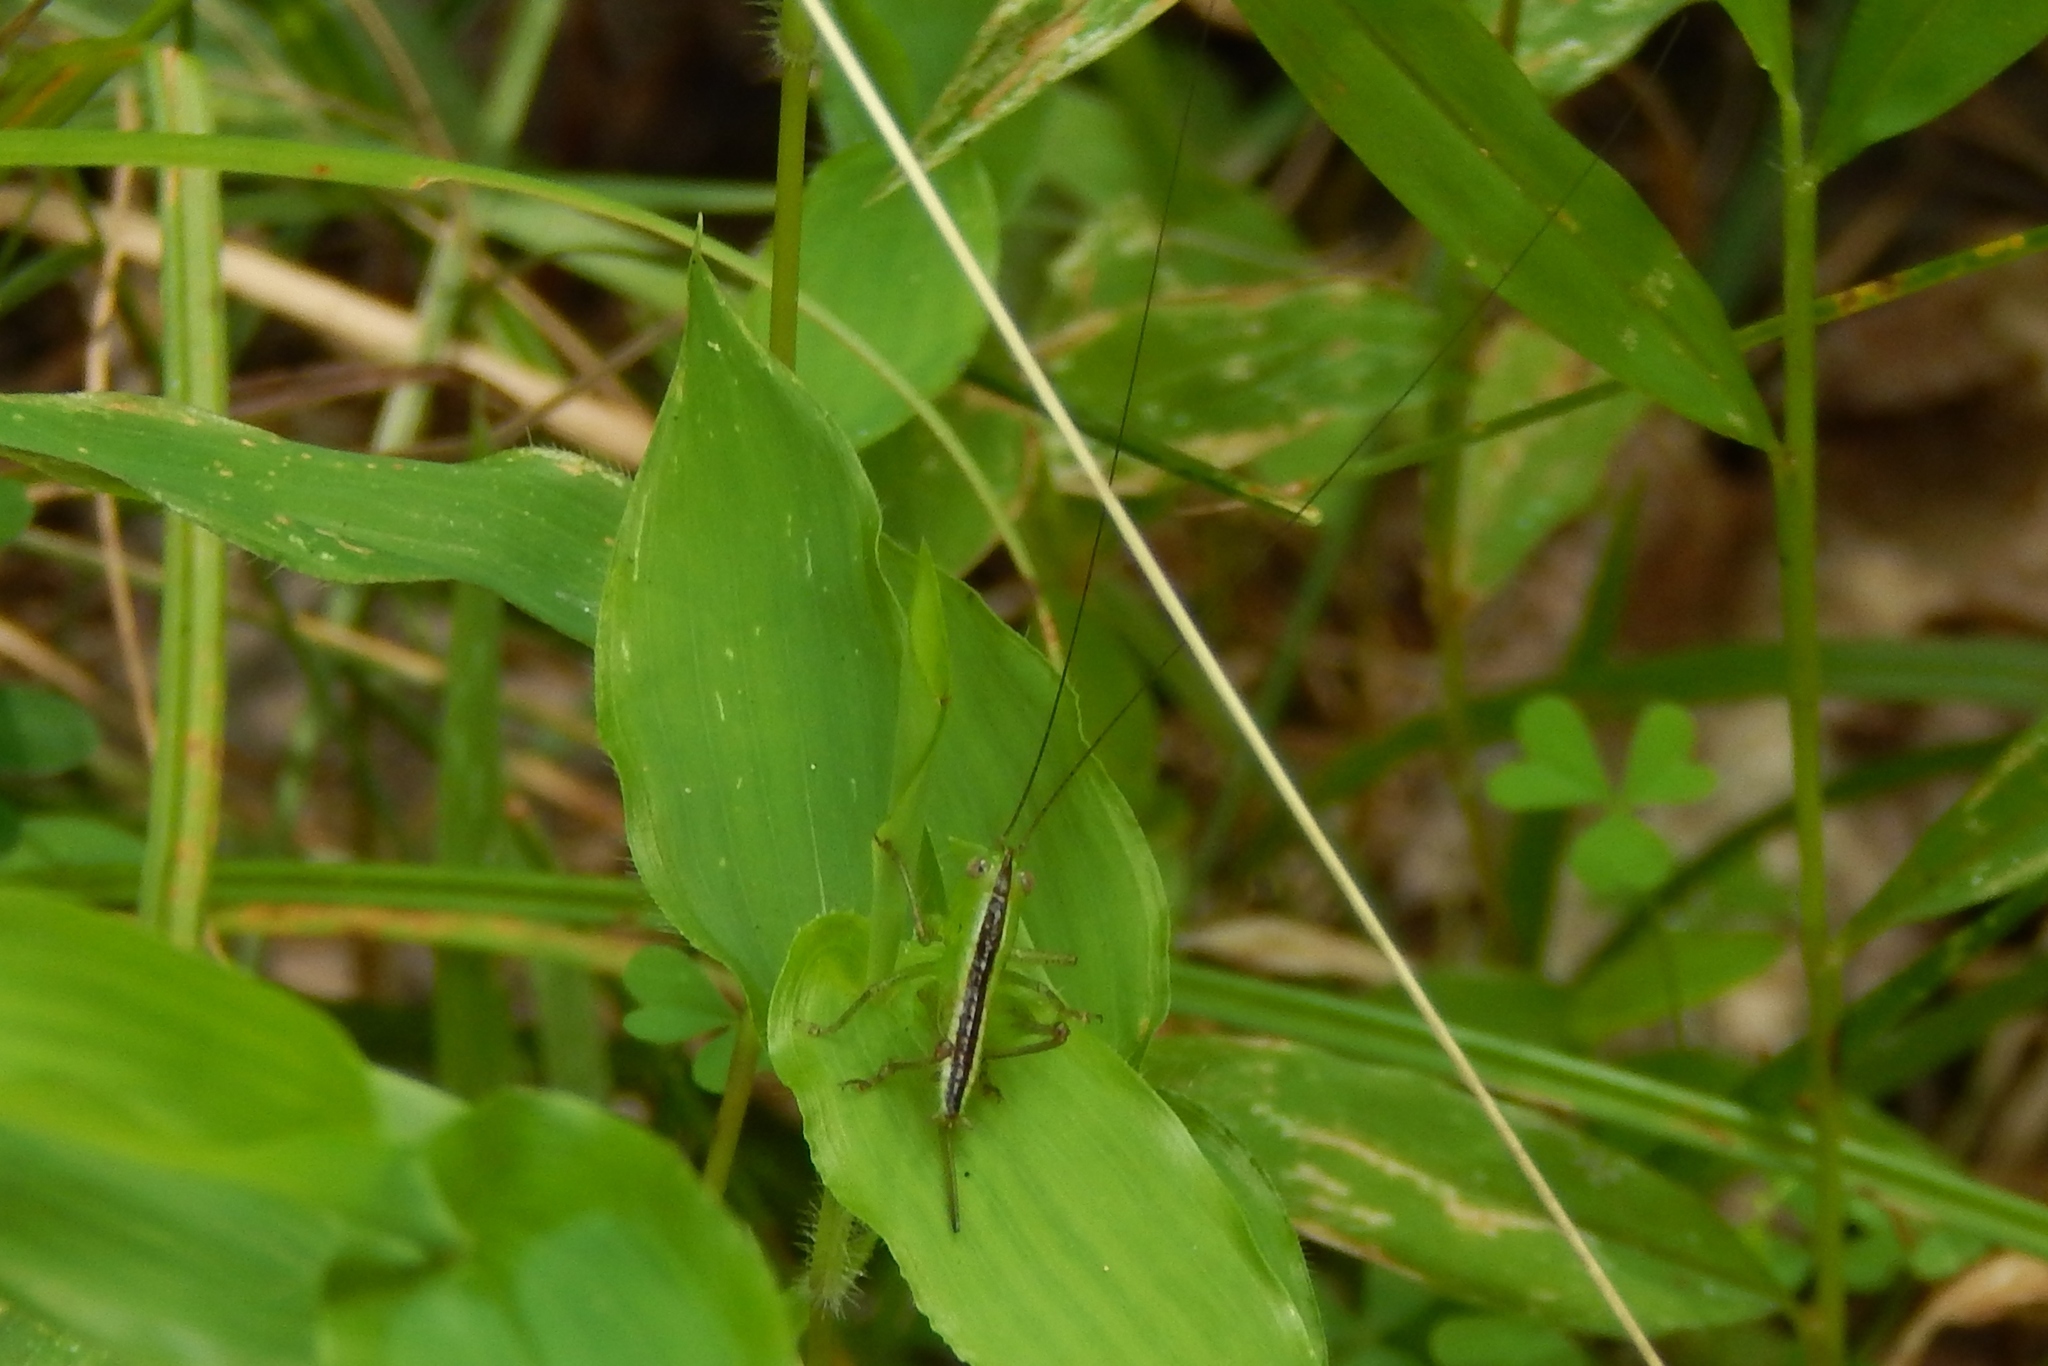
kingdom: Animalia
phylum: Arthropoda
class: Insecta
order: Orthoptera
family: Tettigoniidae
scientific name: Tettigoniidae
